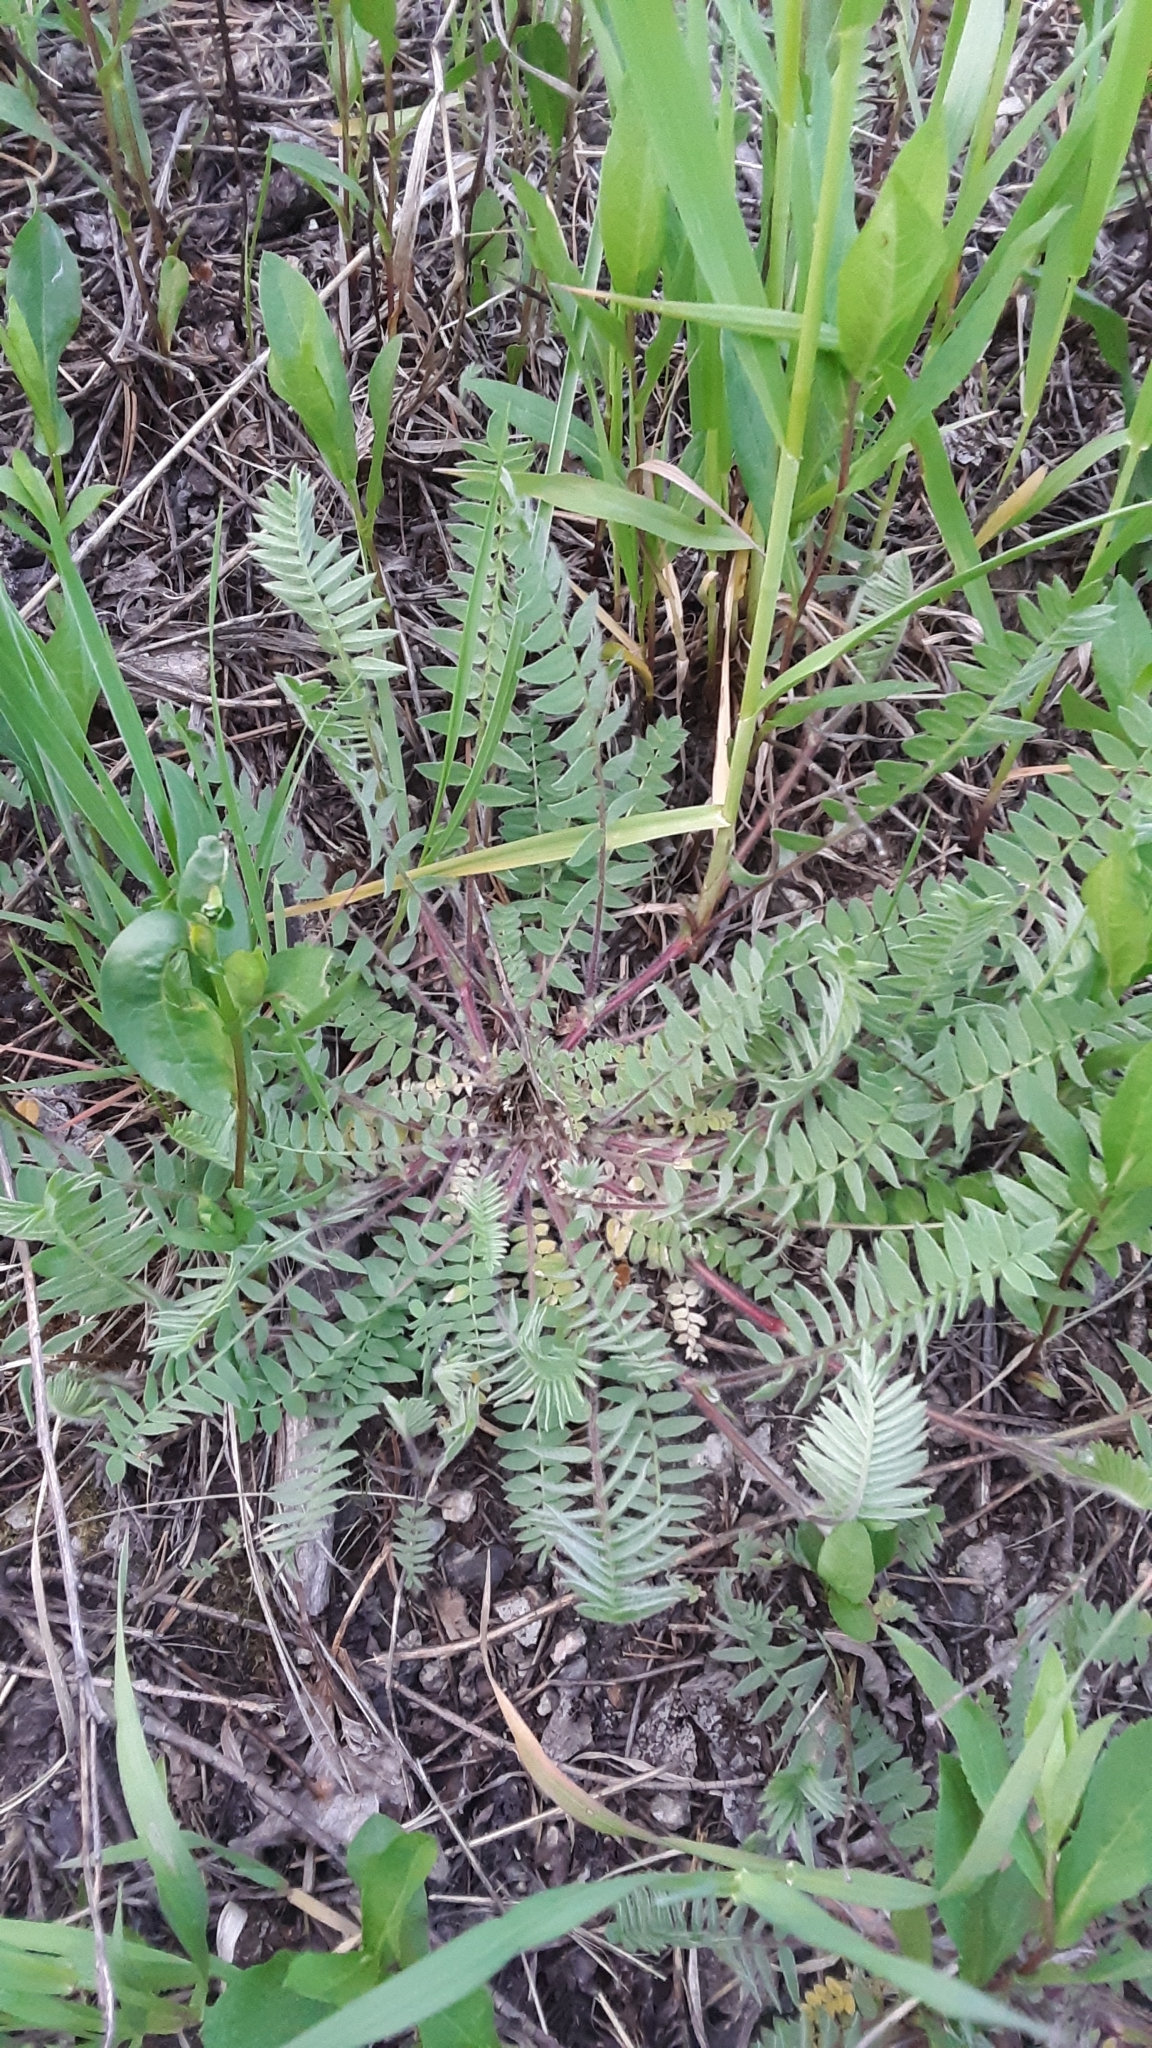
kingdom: Plantae
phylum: Tracheophyta
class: Magnoliopsida
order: Fabales
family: Fabaceae
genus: Oxytropis
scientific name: Oxytropis deflexa
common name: Stemmed oxytrope
